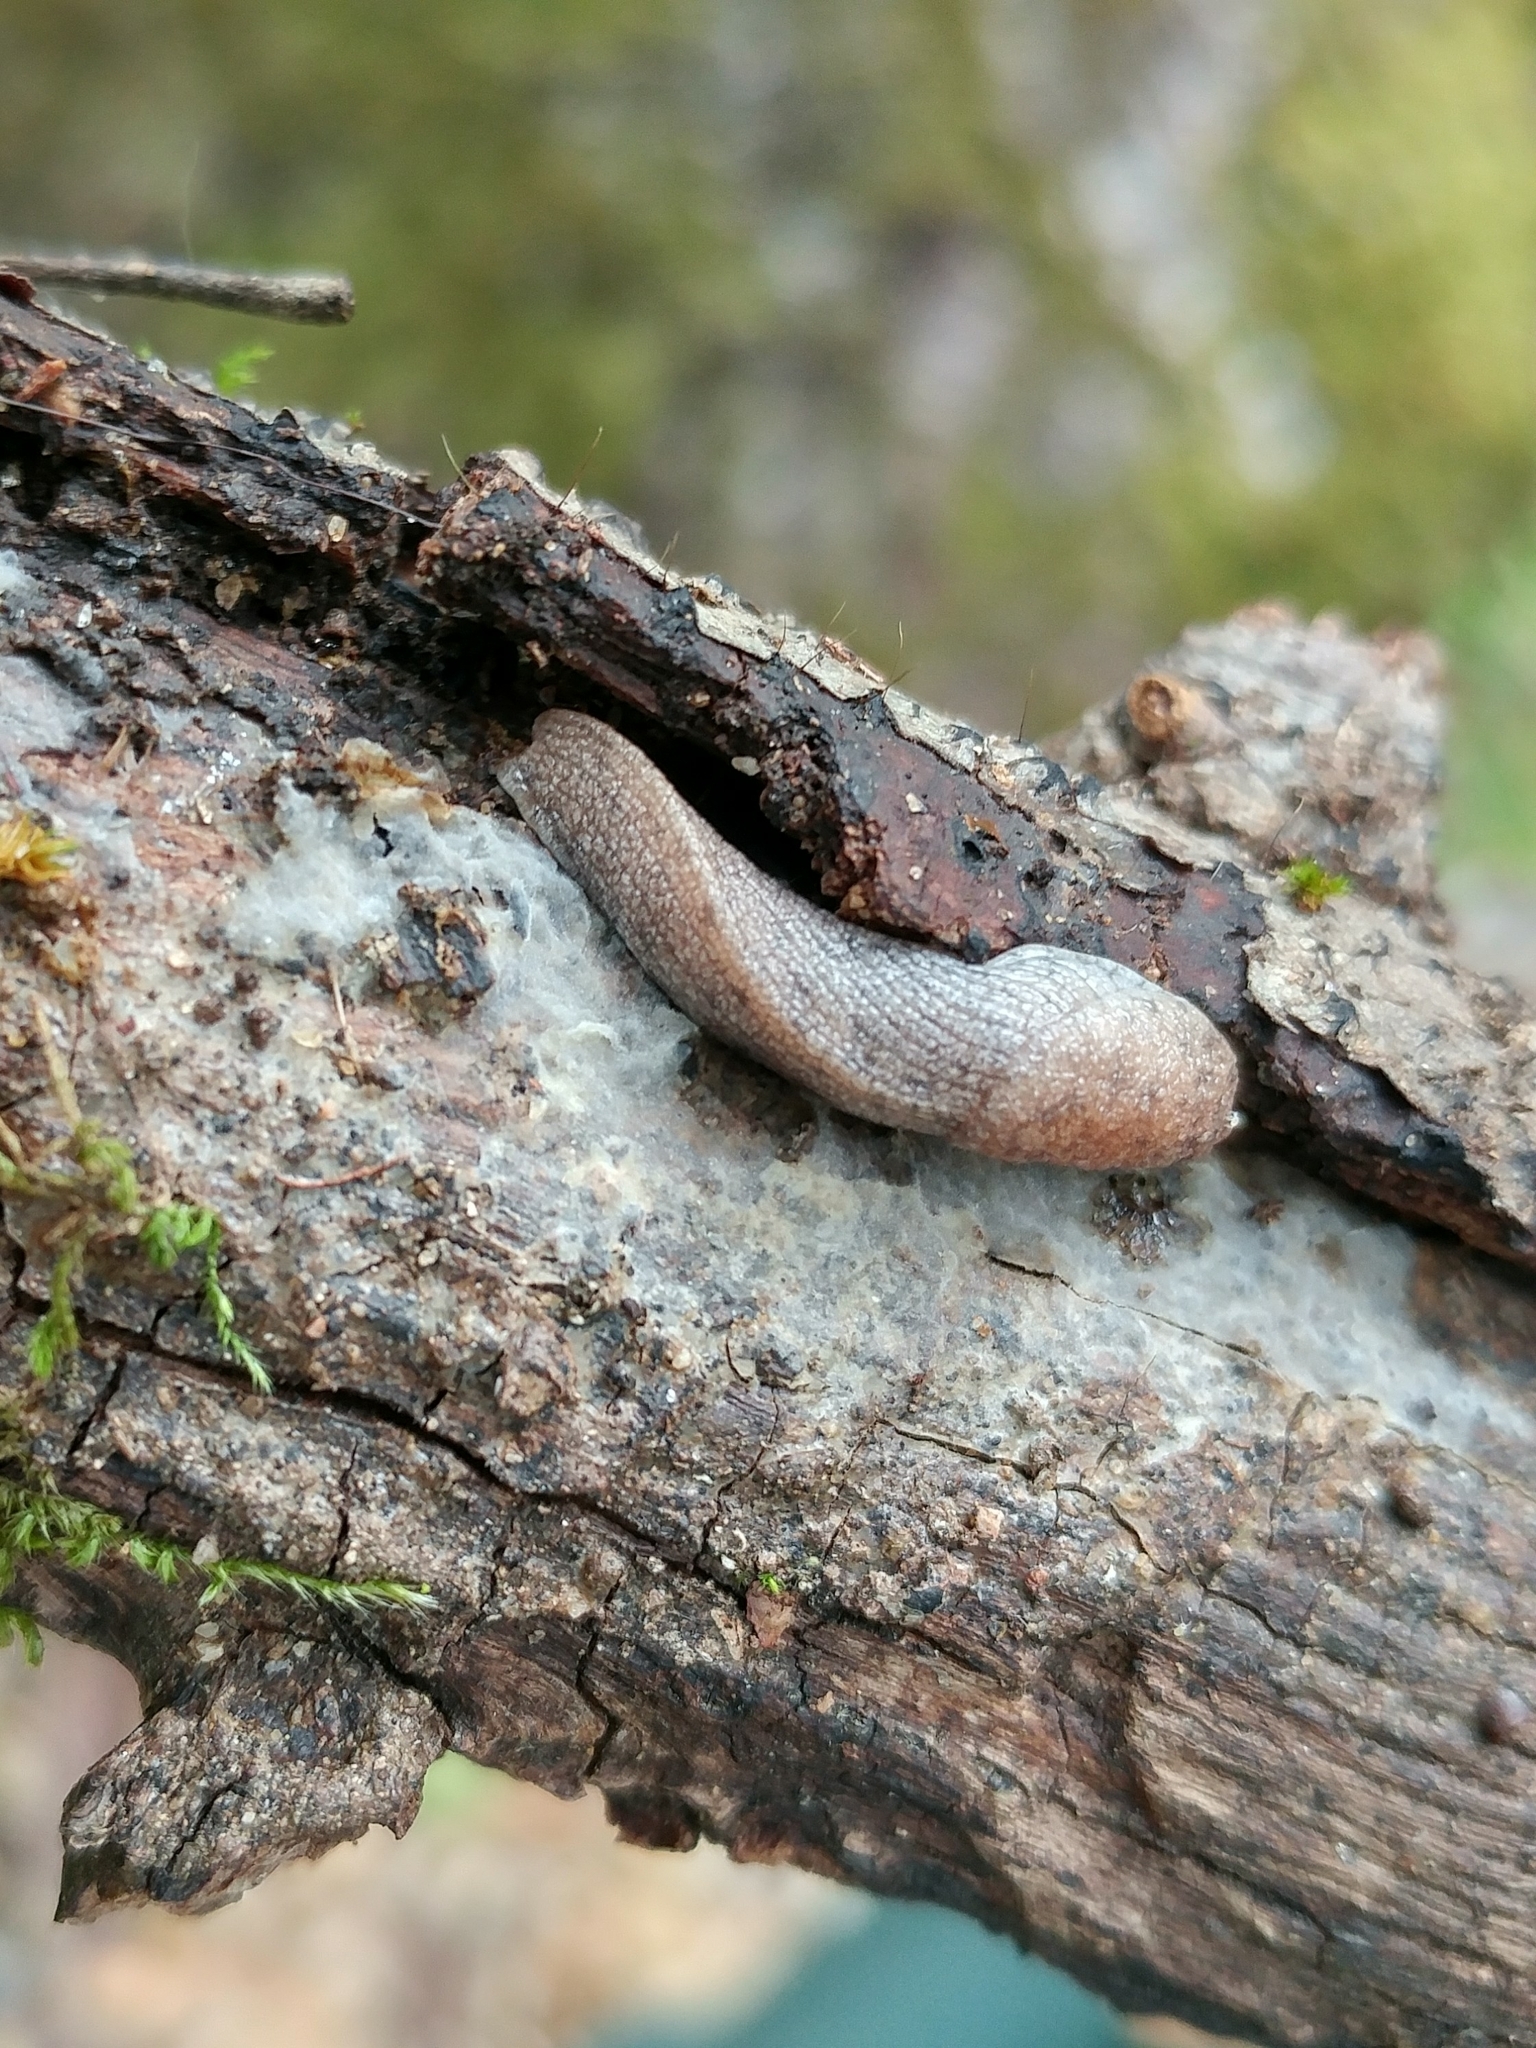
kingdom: Animalia
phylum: Mollusca
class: Gastropoda
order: Stylommatophora
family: Ariolimacidae
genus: Hesperarion
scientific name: Hesperarion hemphilli
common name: Hemphill western slug
